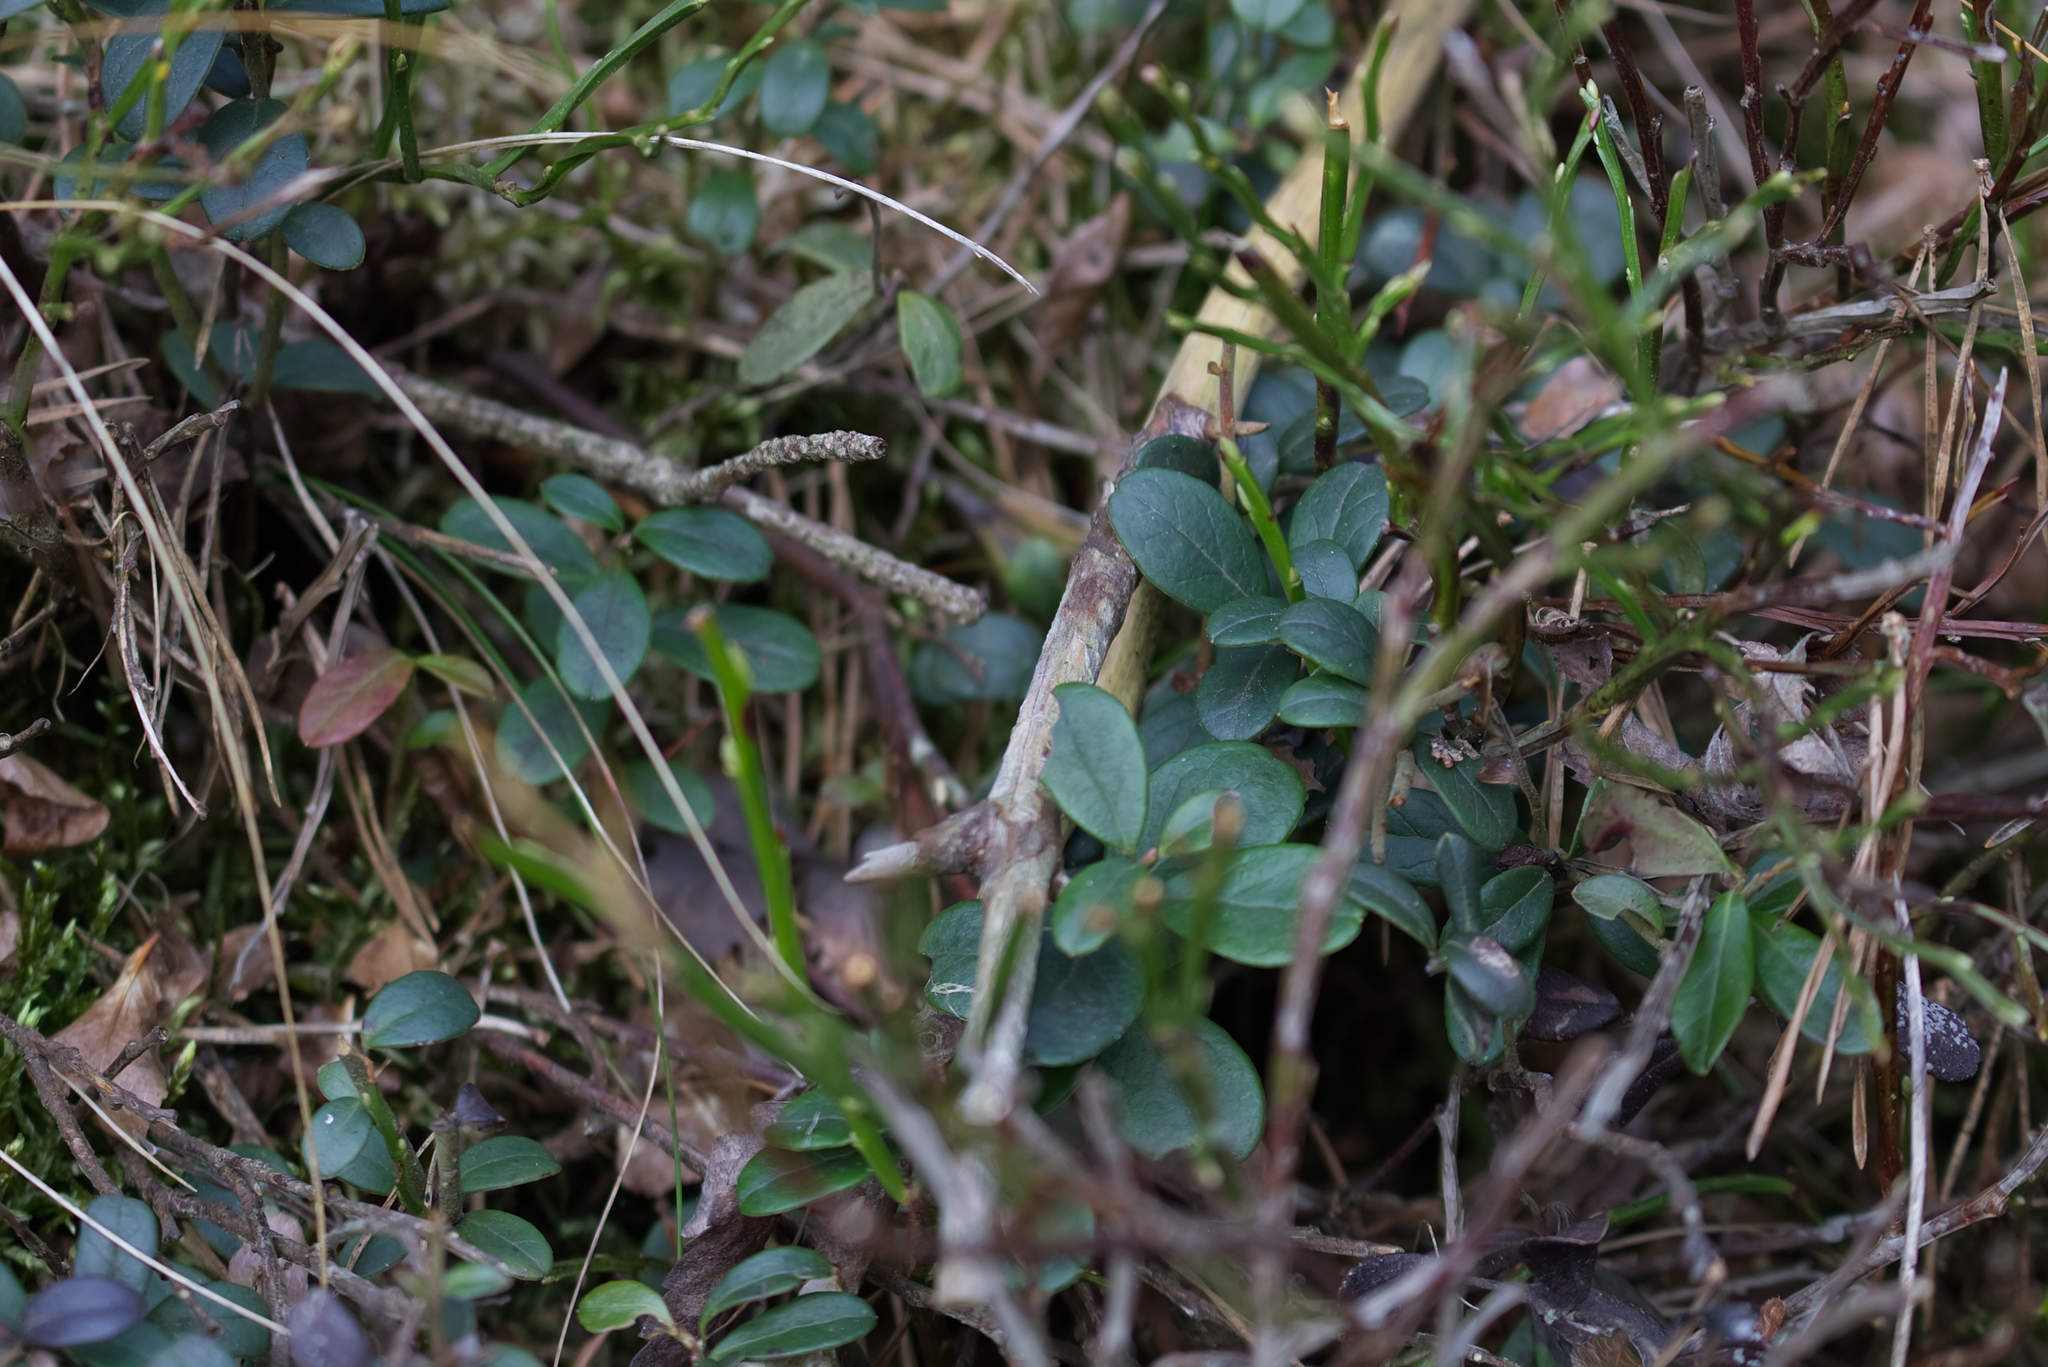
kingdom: Plantae
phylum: Tracheophyta
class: Magnoliopsida
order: Ericales
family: Ericaceae
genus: Vaccinium
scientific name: Vaccinium vitis-idaea
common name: Cowberry
